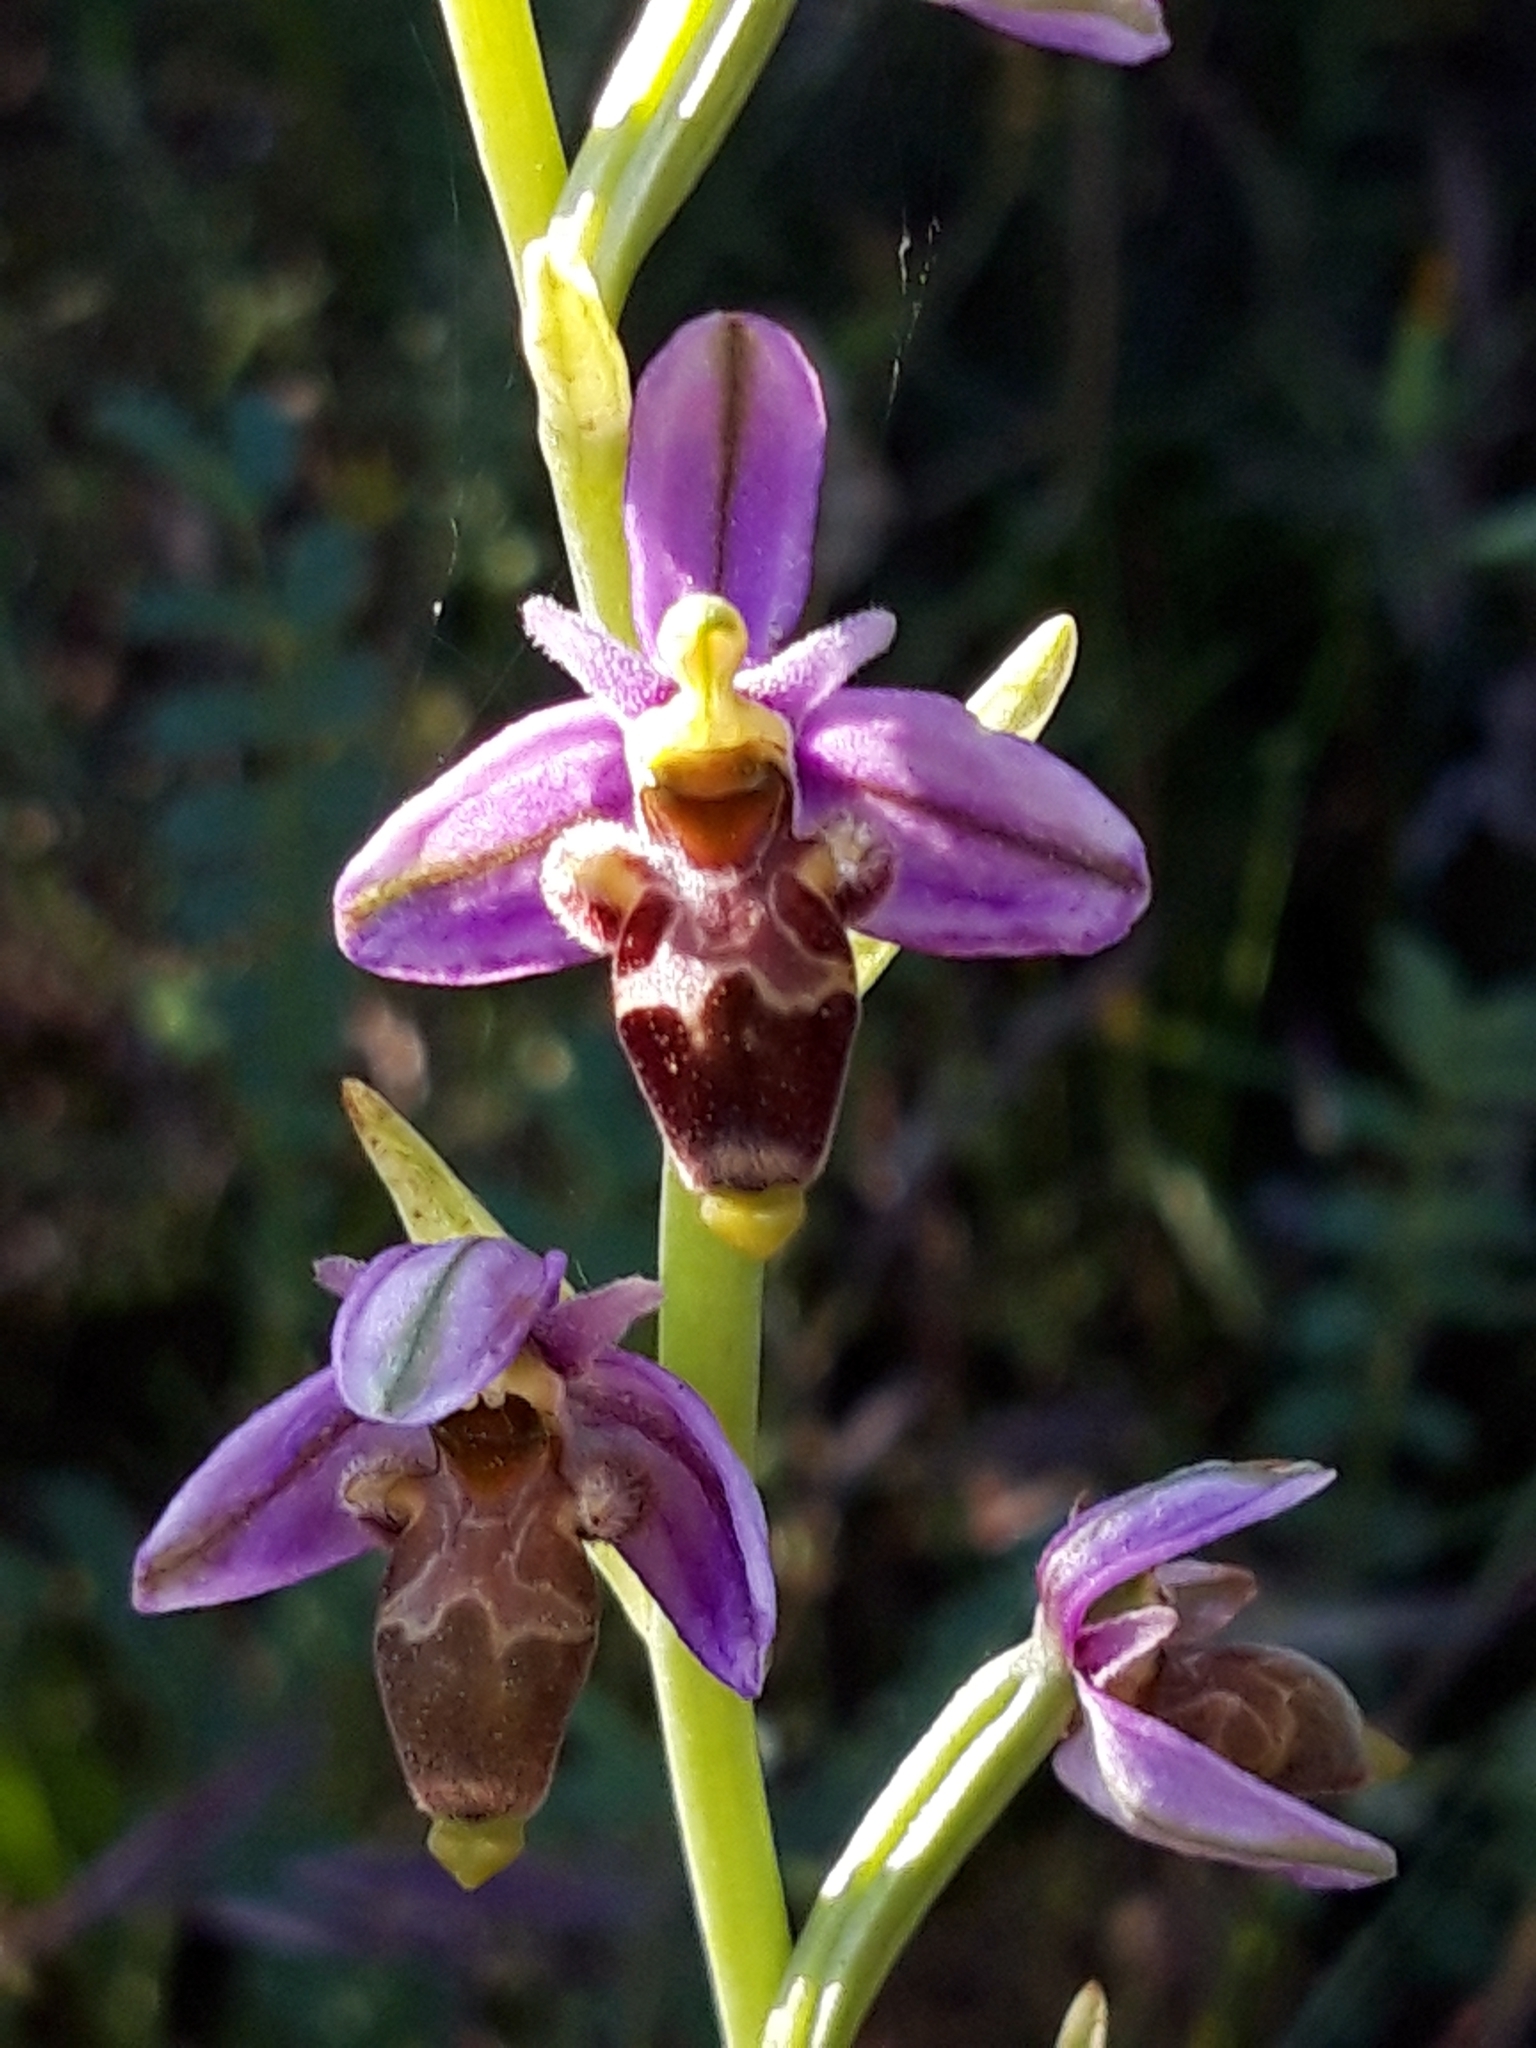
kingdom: Plantae
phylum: Tracheophyta
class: Liliopsida
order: Asparagales
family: Orchidaceae
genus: Ophrys
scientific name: Ophrys scolopax
